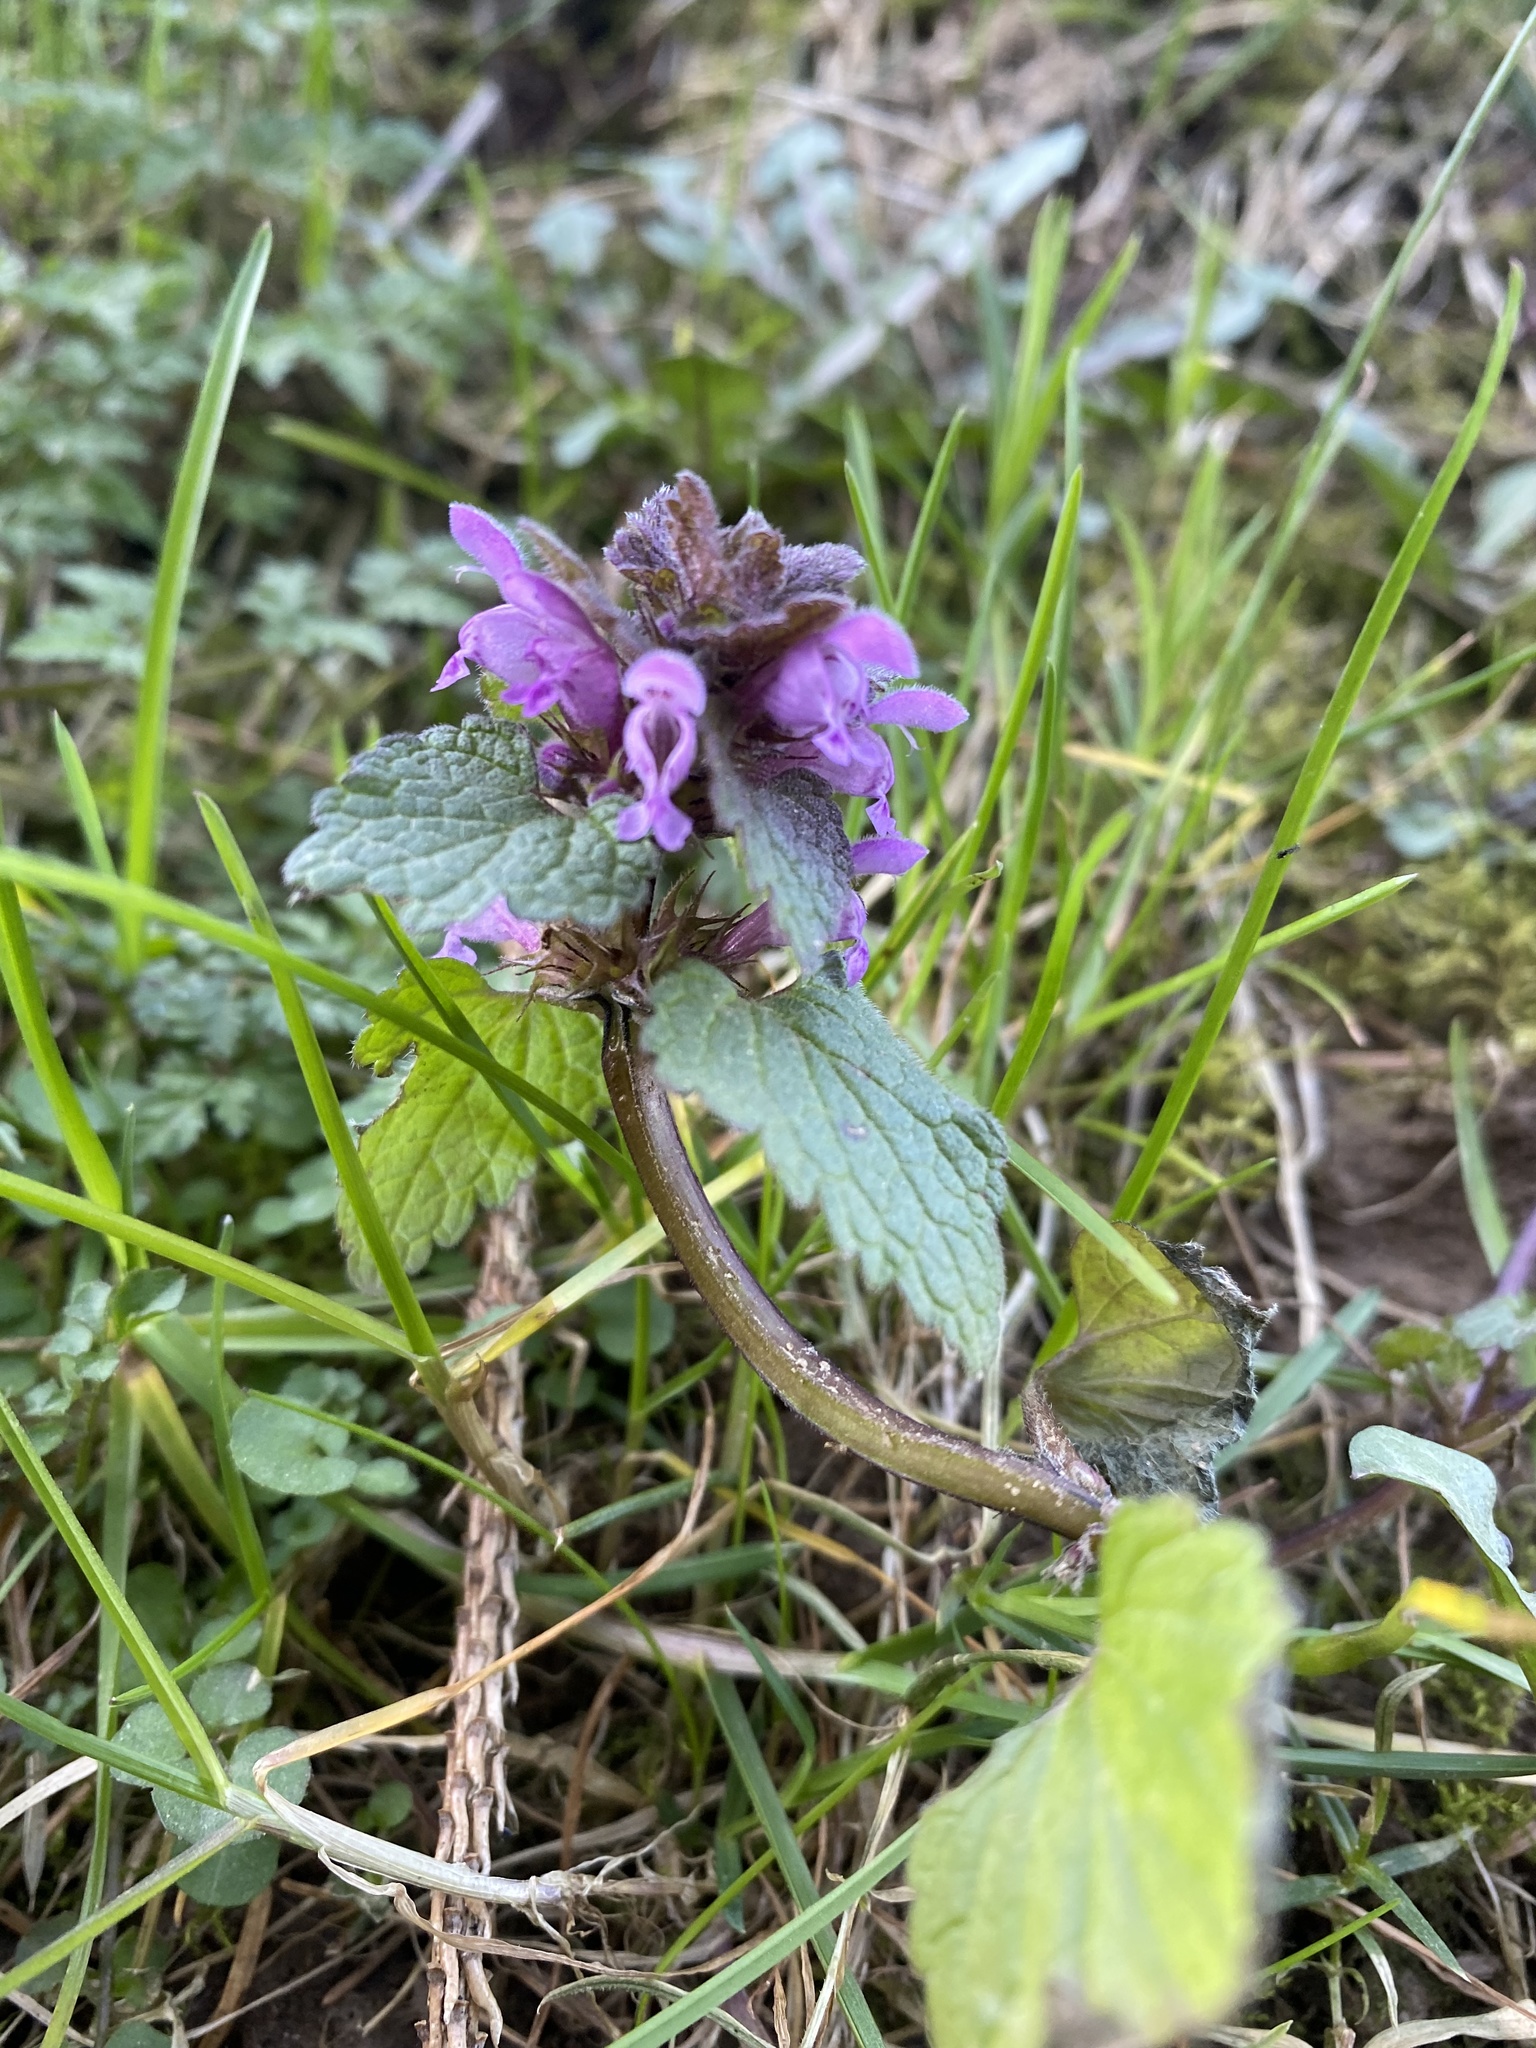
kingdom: Plantae
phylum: Tracheophyta
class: Magnoliopsida
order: Lamiales
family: Lamiaceae
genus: Lamium
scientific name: Lamium purpureum
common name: Red dead-nettle
